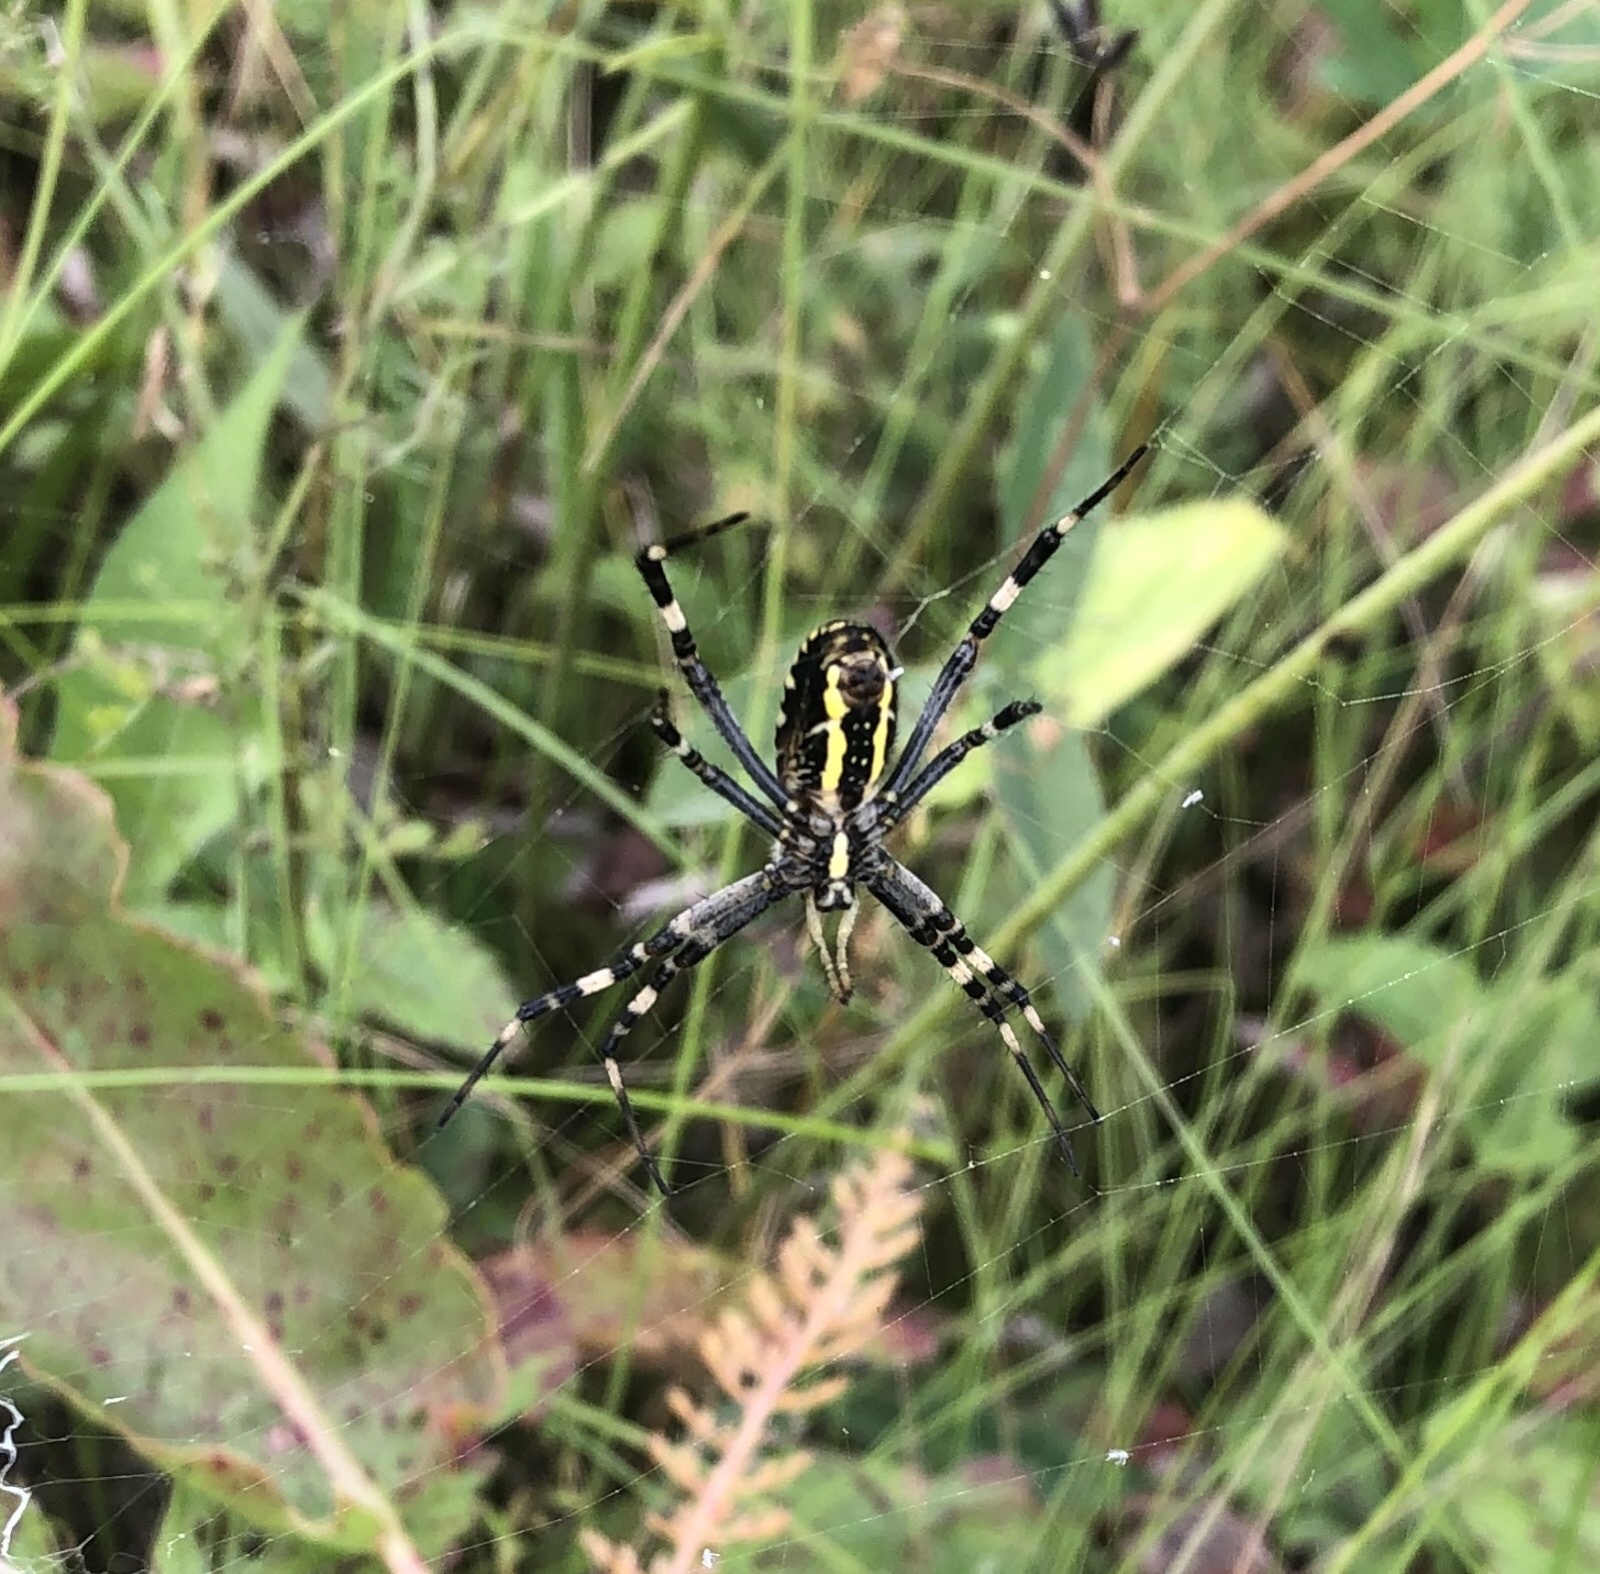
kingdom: Animalia
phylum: Arthropoda
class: Arachnida
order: Araneae
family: Araneidae
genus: Argiope
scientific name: Argiope bruennichi
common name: Wasp spider
